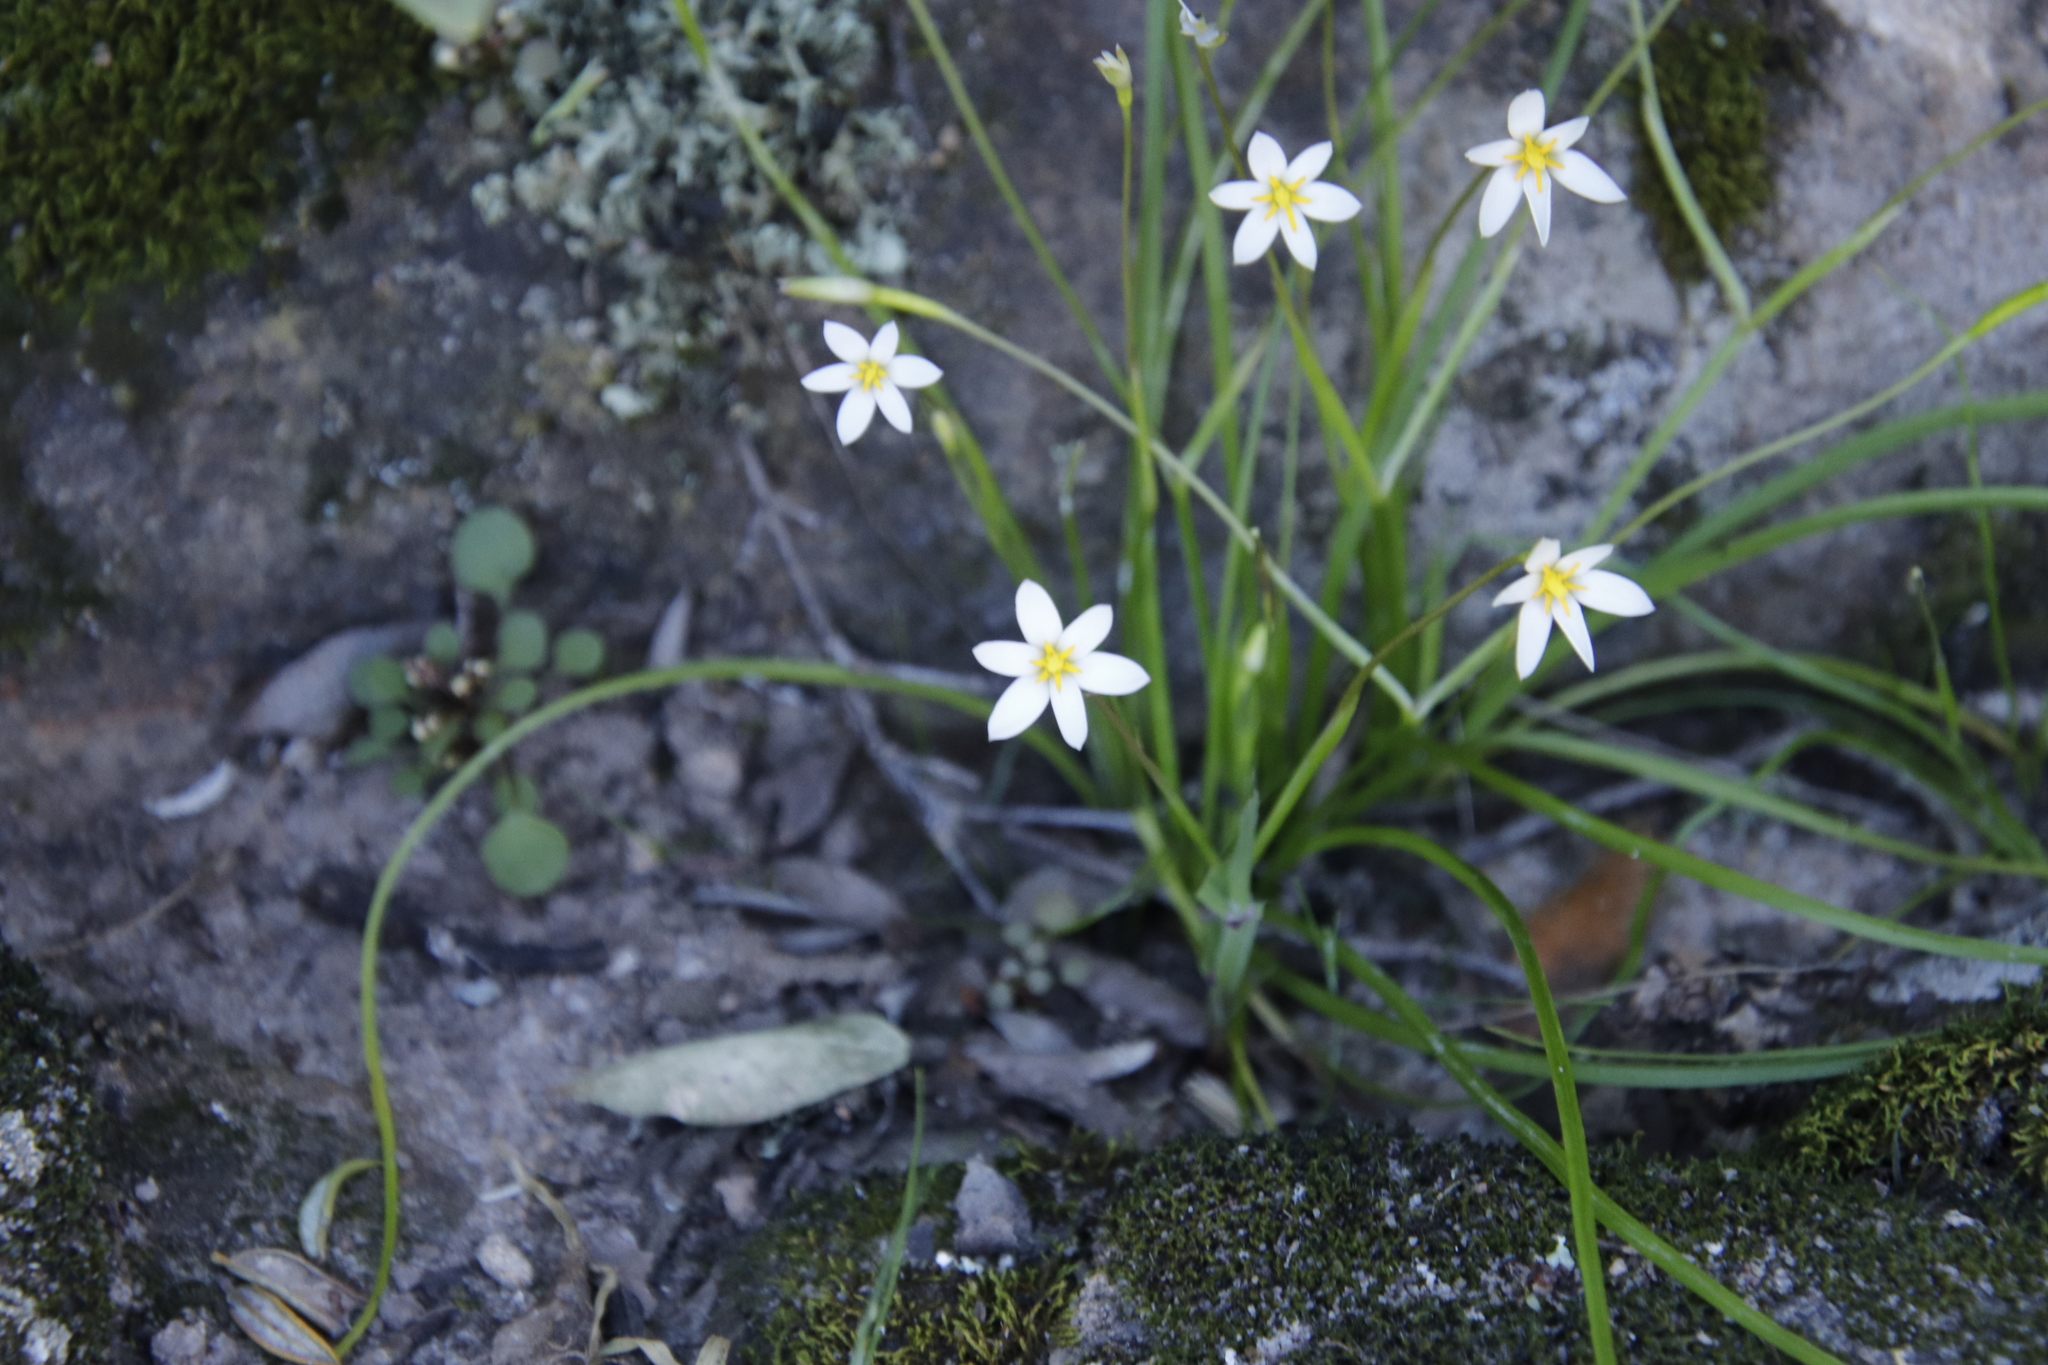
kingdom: Plantae
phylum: Tracheophyta
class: Liliopsida
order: Asparagales
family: Hypoxidaceae
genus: Pauridia
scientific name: Pauridia nana
